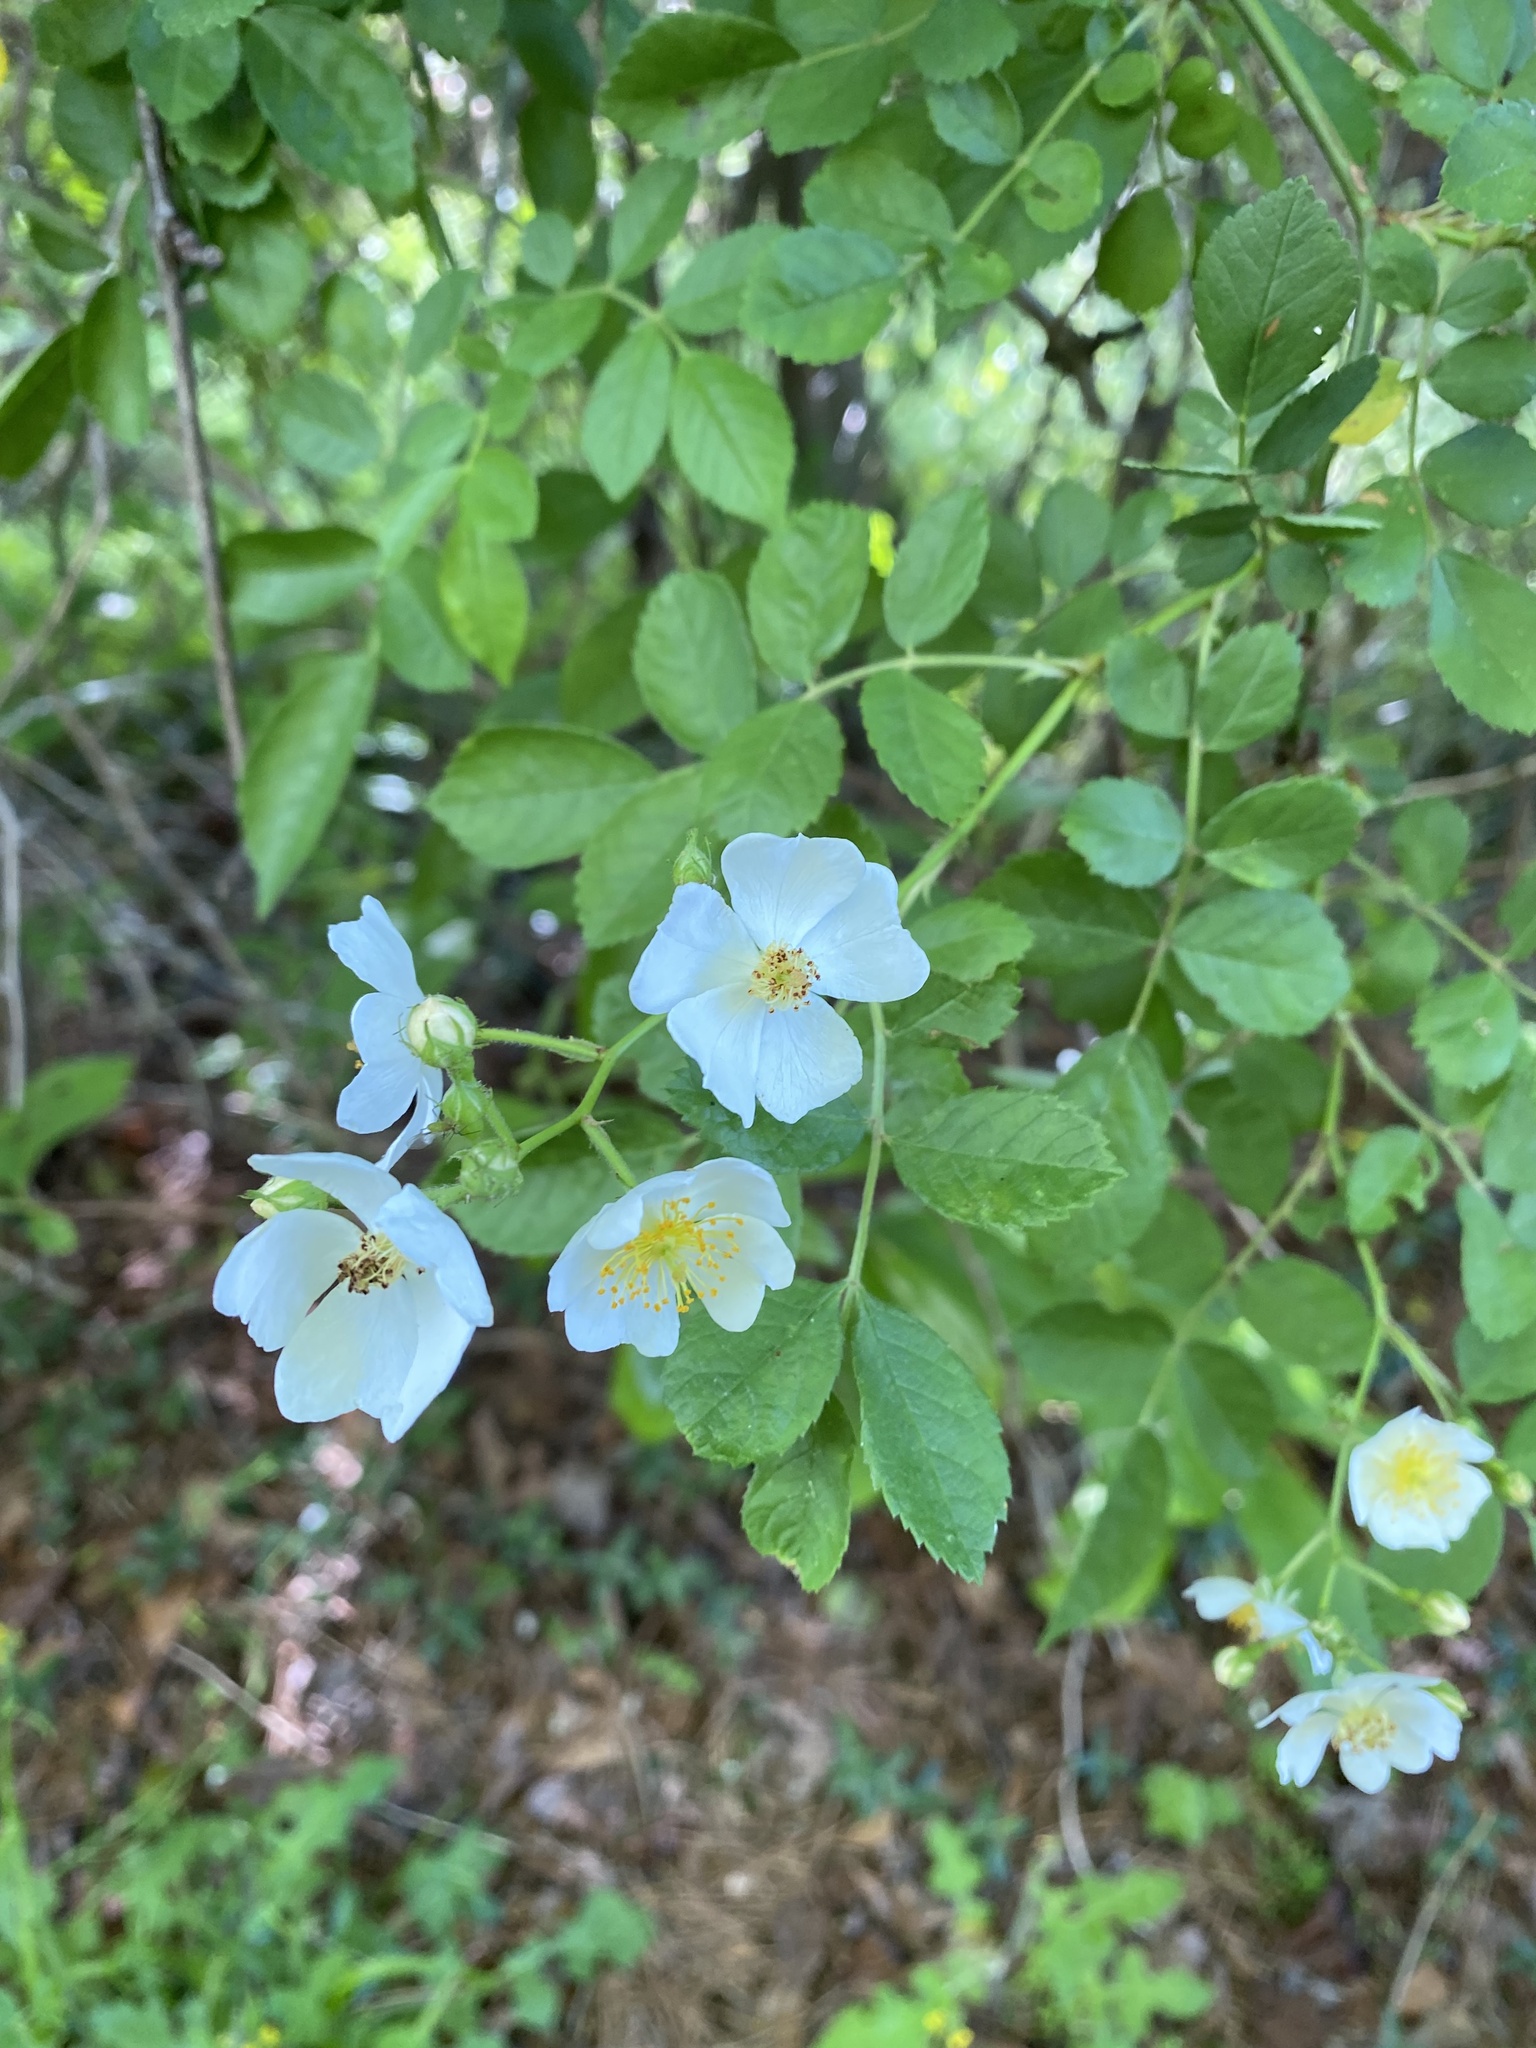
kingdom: Plantae
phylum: Tracheophyta
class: Magnoliopsida
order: Rosales
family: Rosaceae
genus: Rosa
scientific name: Rosa multiflora
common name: Multiflora rose
